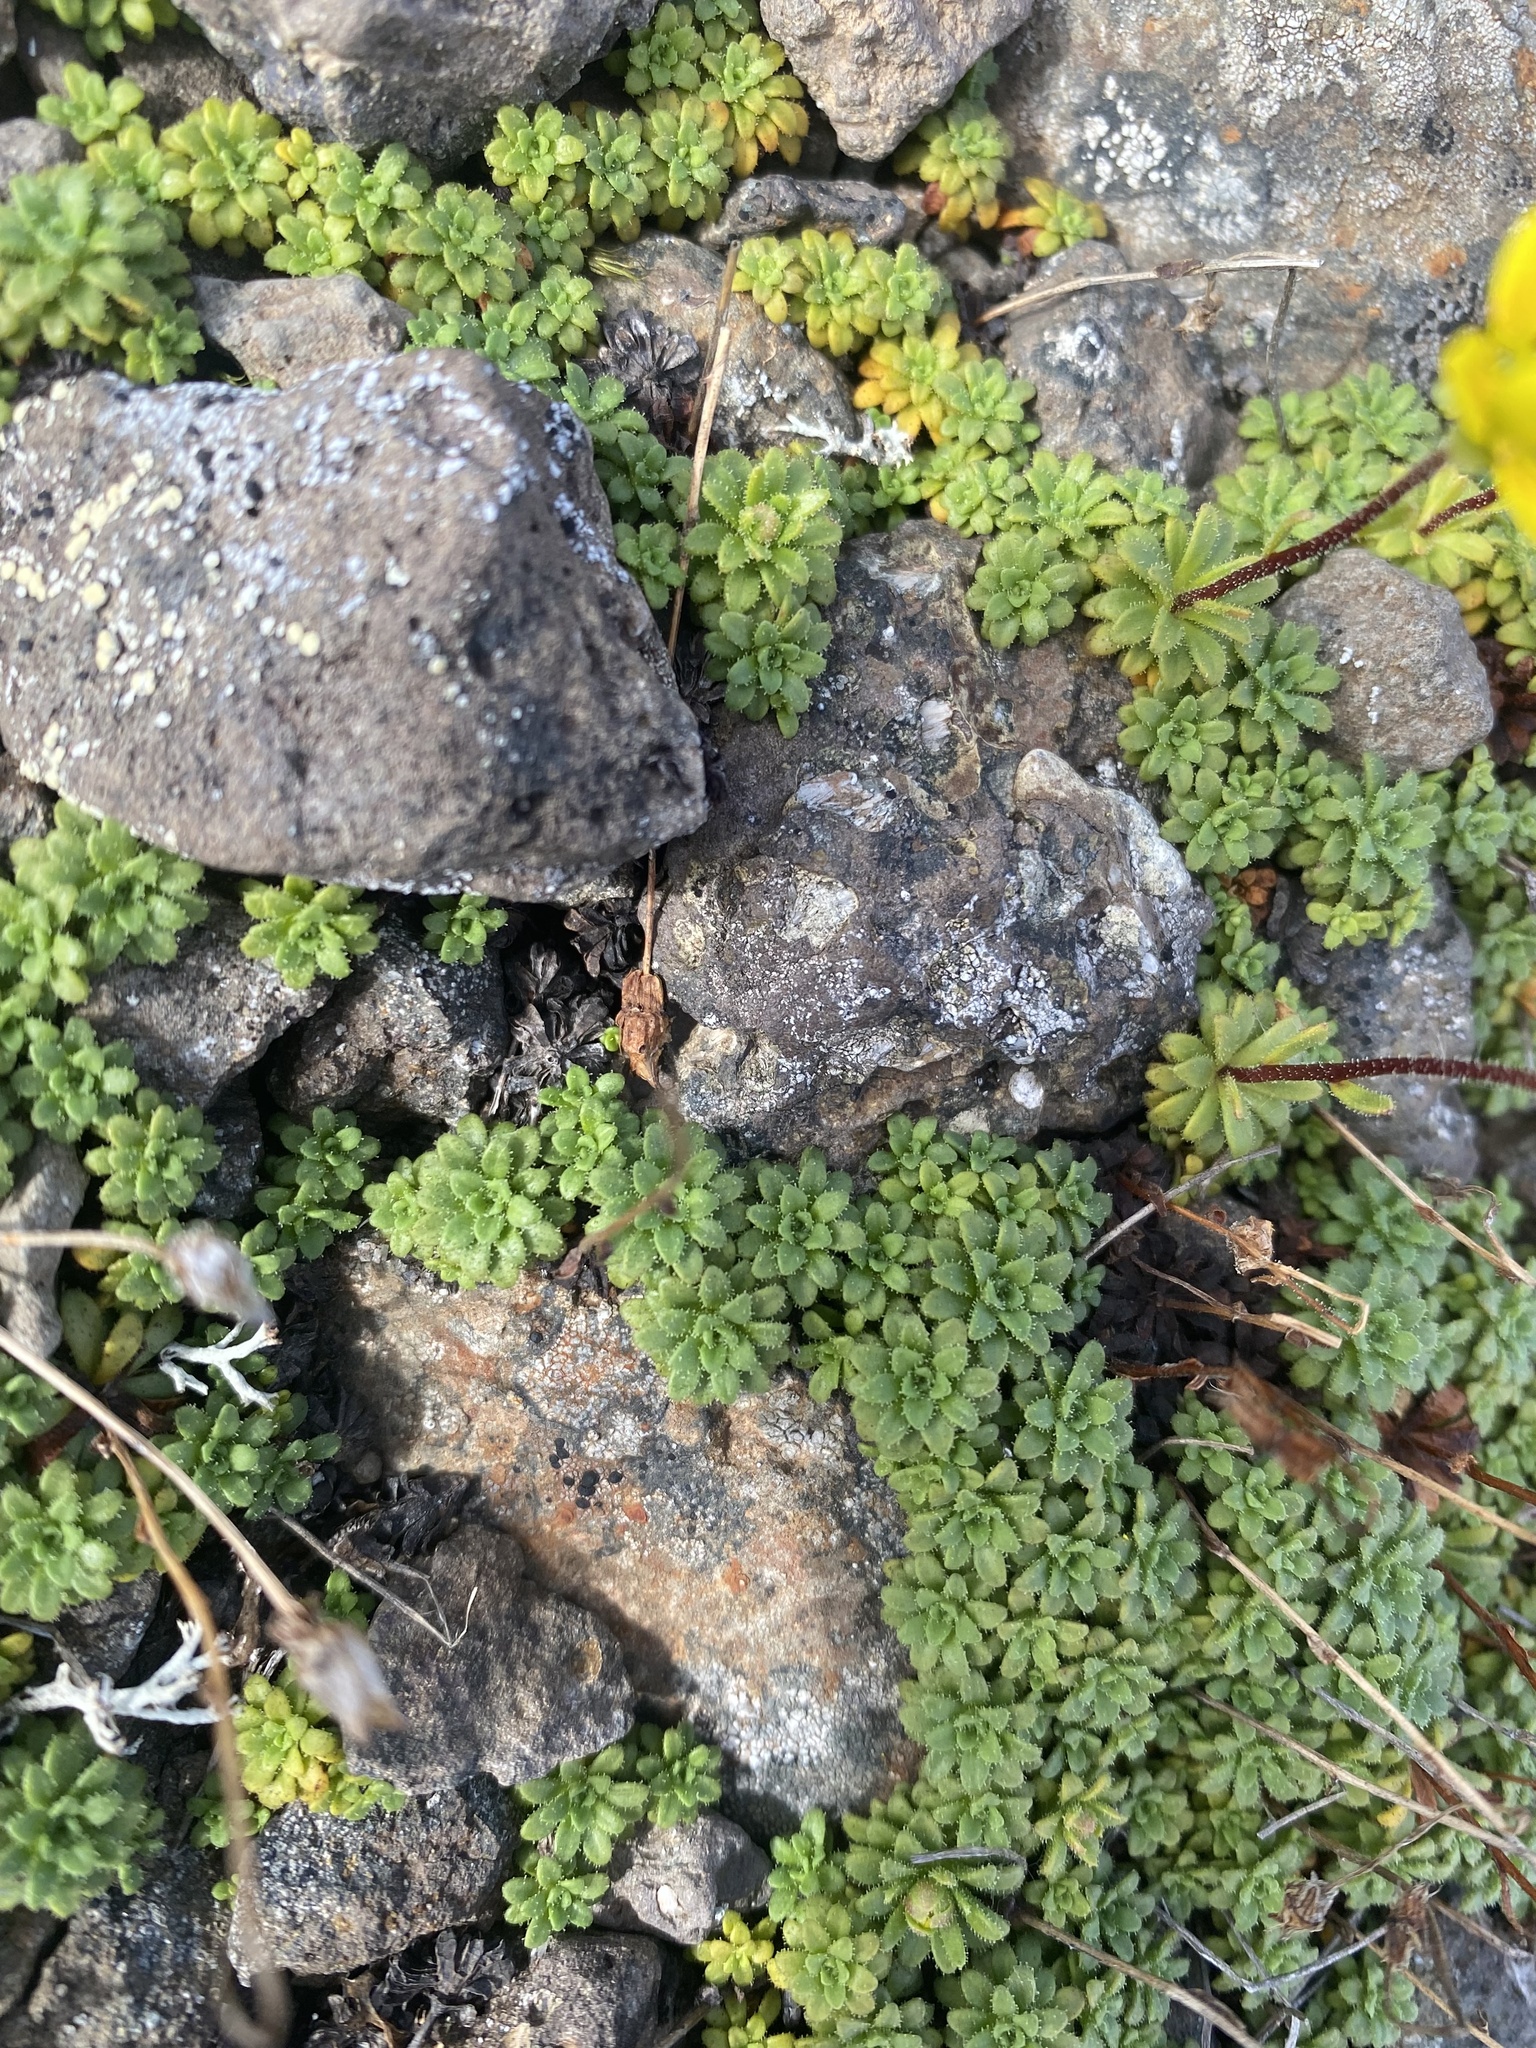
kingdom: Plantae
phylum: Tracheophyta
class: Magnoliopsida
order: Saxifragales
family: Saxifragaceae
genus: Saxifraga
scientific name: Saxifraga serpyllifolia
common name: Thyme-leaved saxifrage
